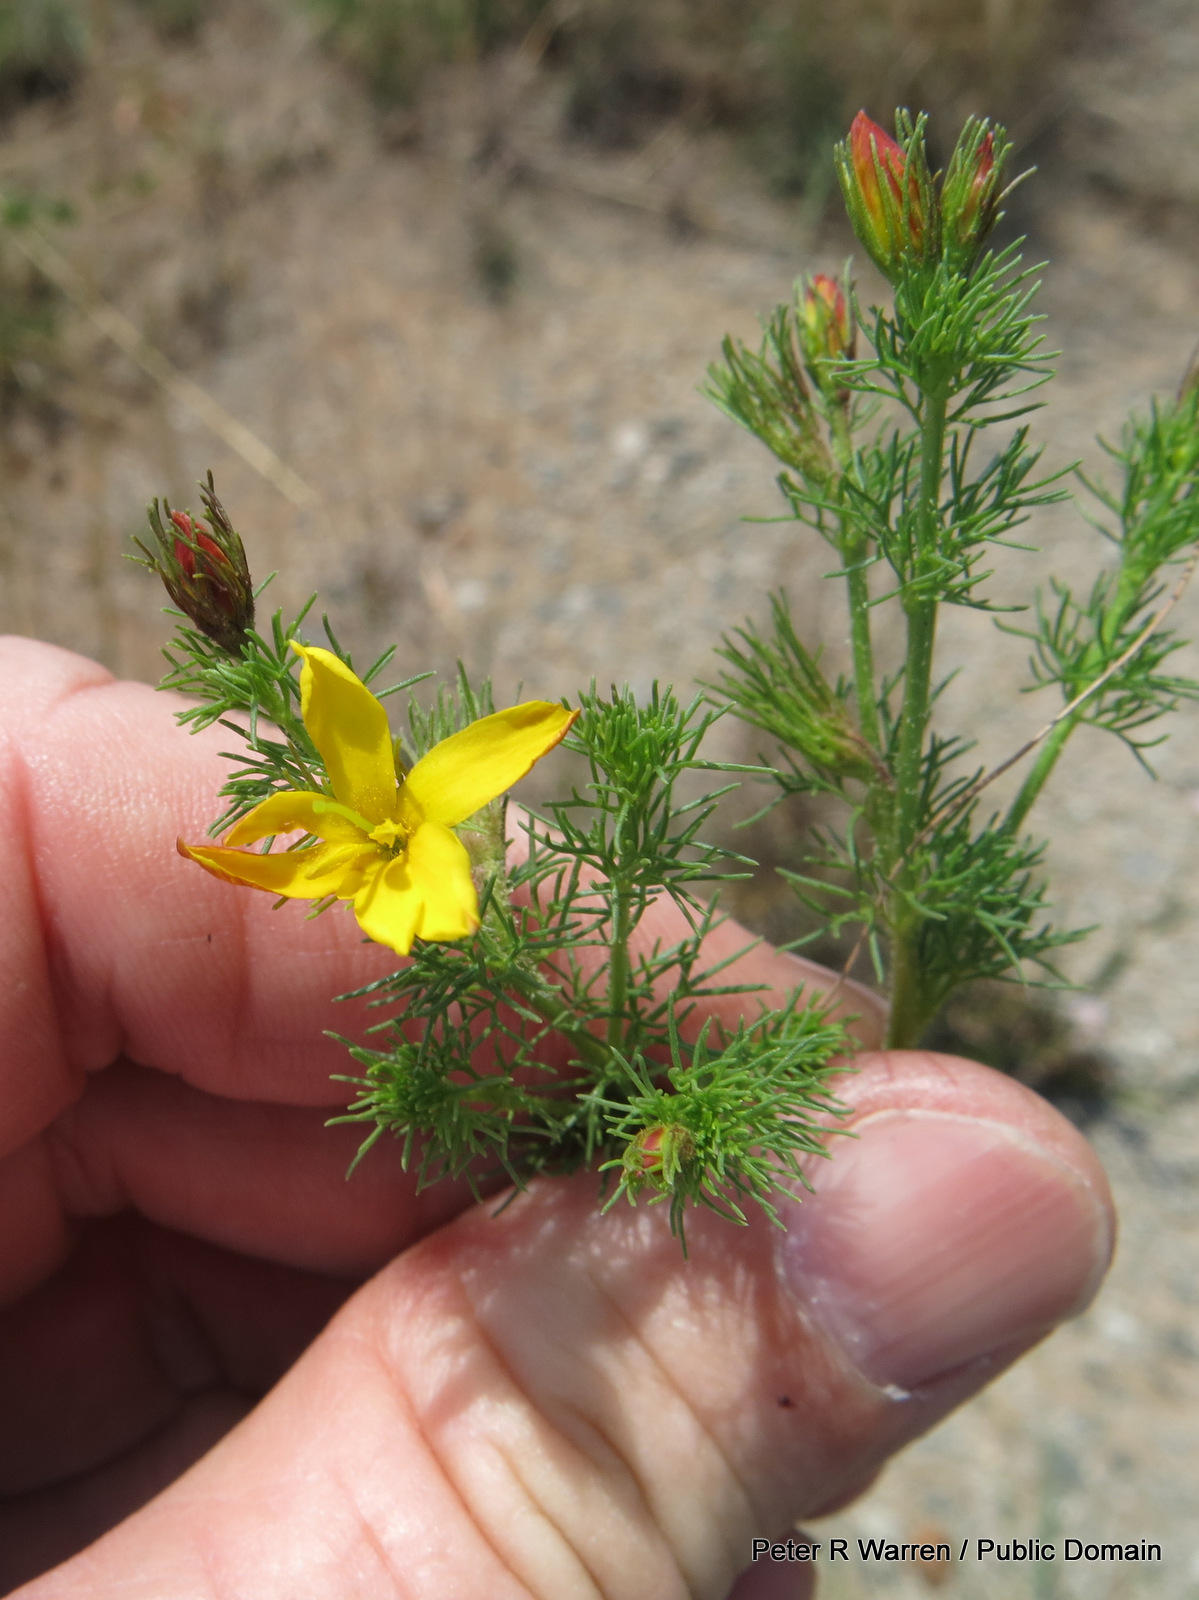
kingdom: Plantae
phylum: Tracheophyta
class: Magnoliopsida
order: Lamiales
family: Oleaceae
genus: Menodora
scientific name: Menodora africana
